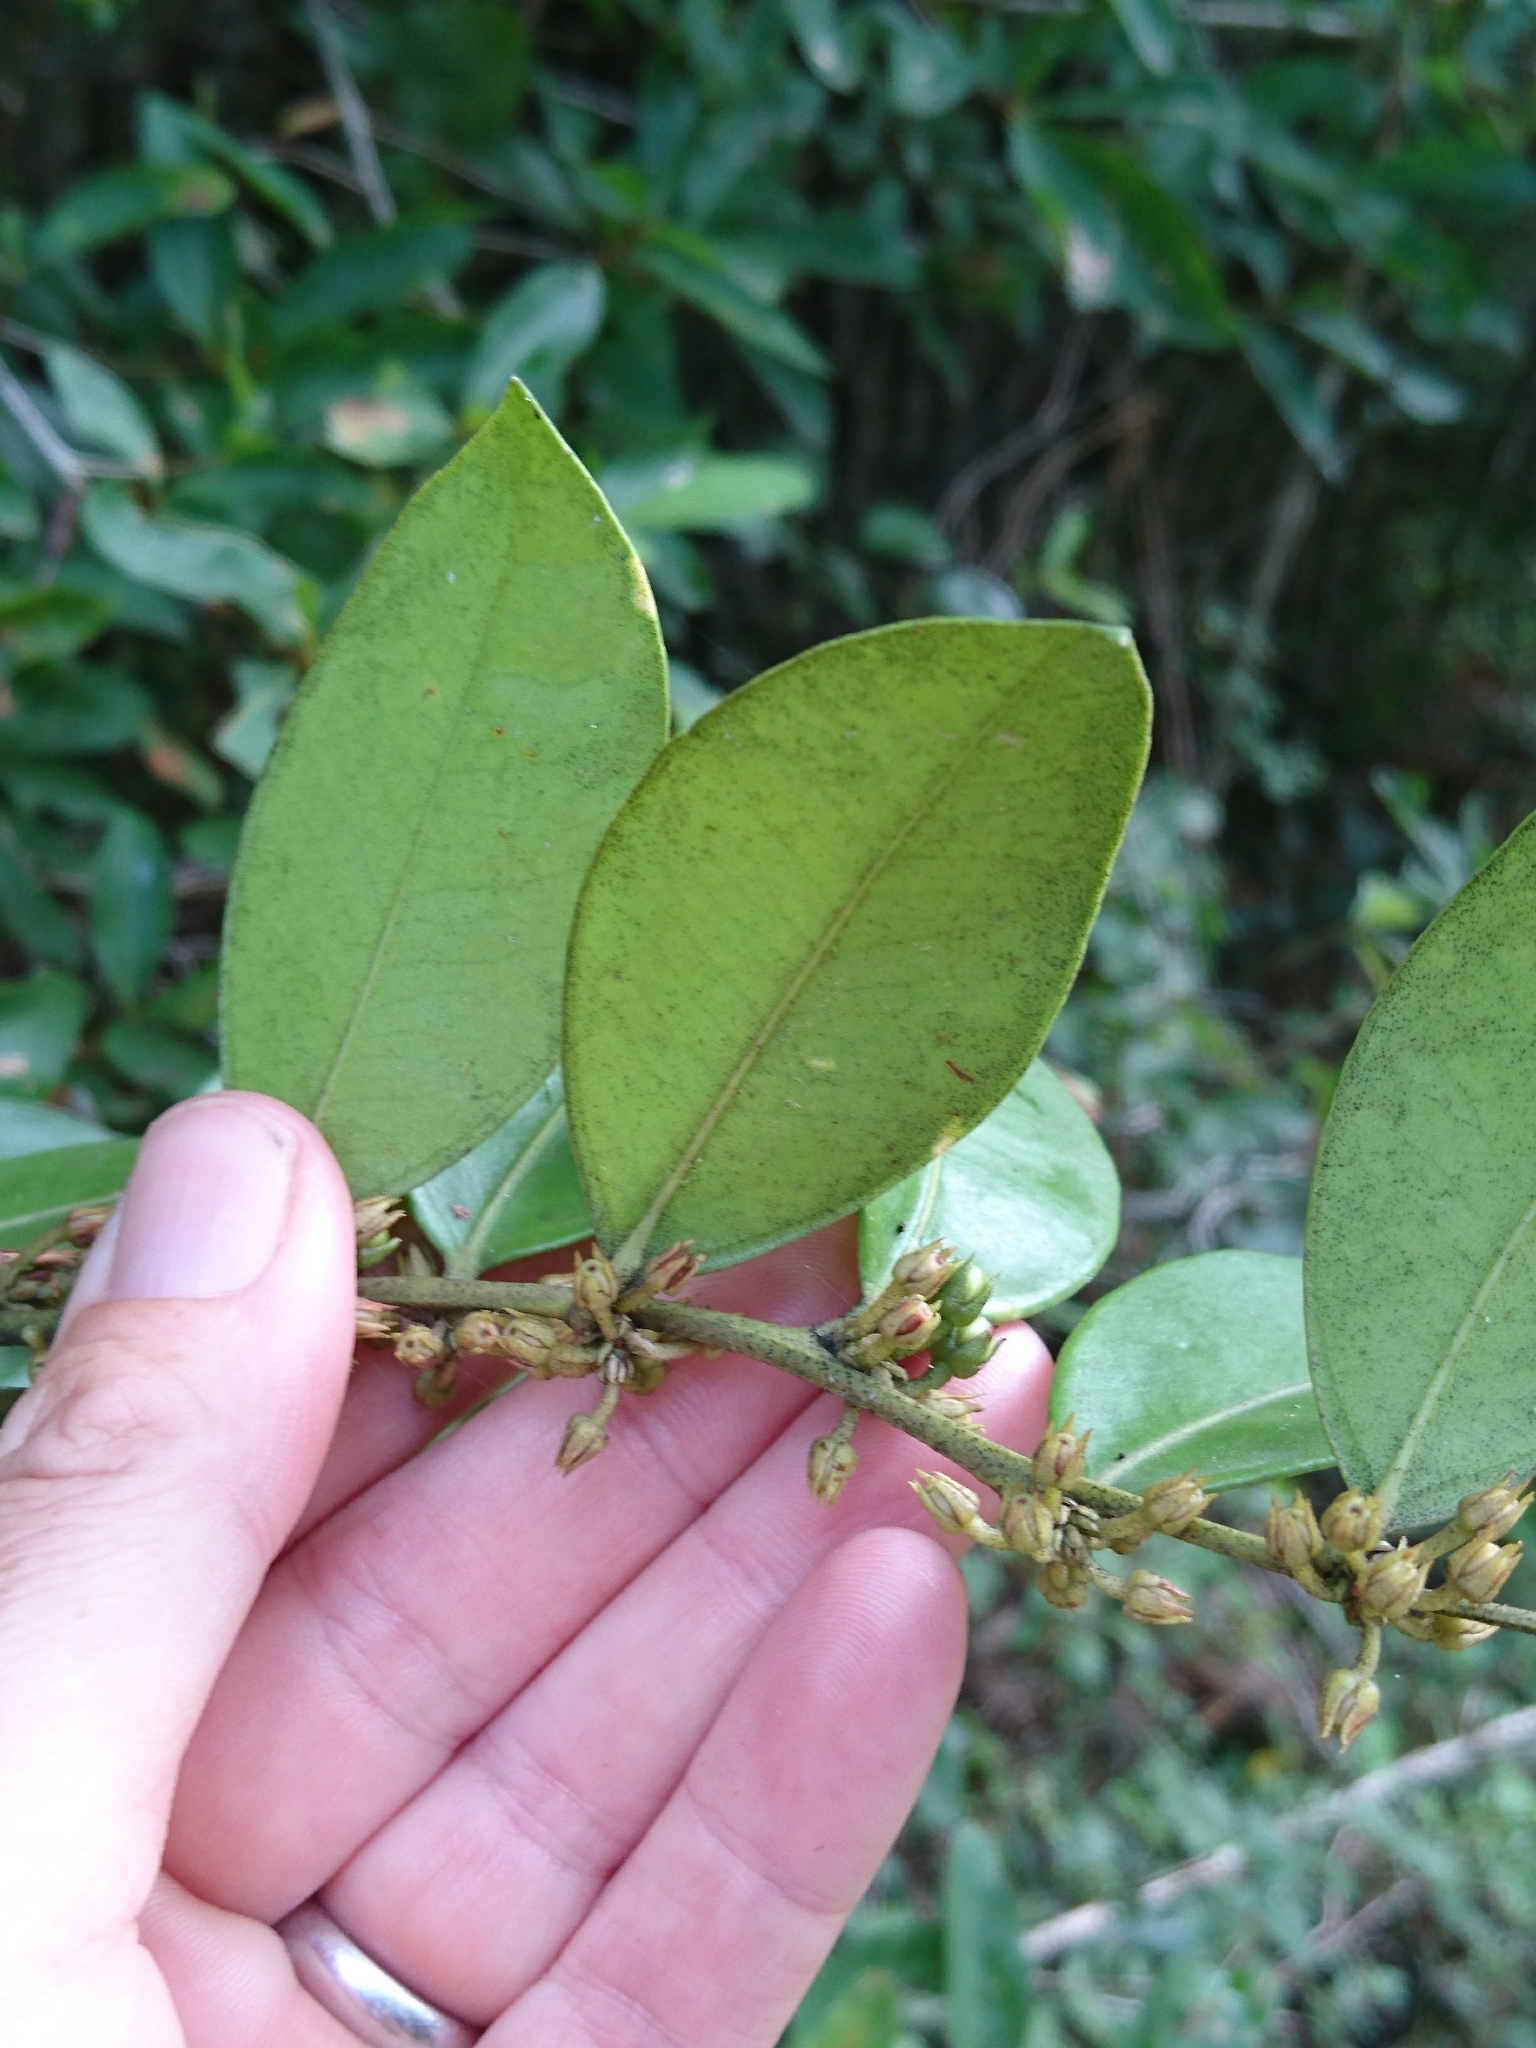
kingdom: Plantae
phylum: Tracheophyta
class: Magnoliopsida
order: Ericales
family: Ericaceae
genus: Lyonia
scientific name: Lyonia lucida
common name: Fetterbush
